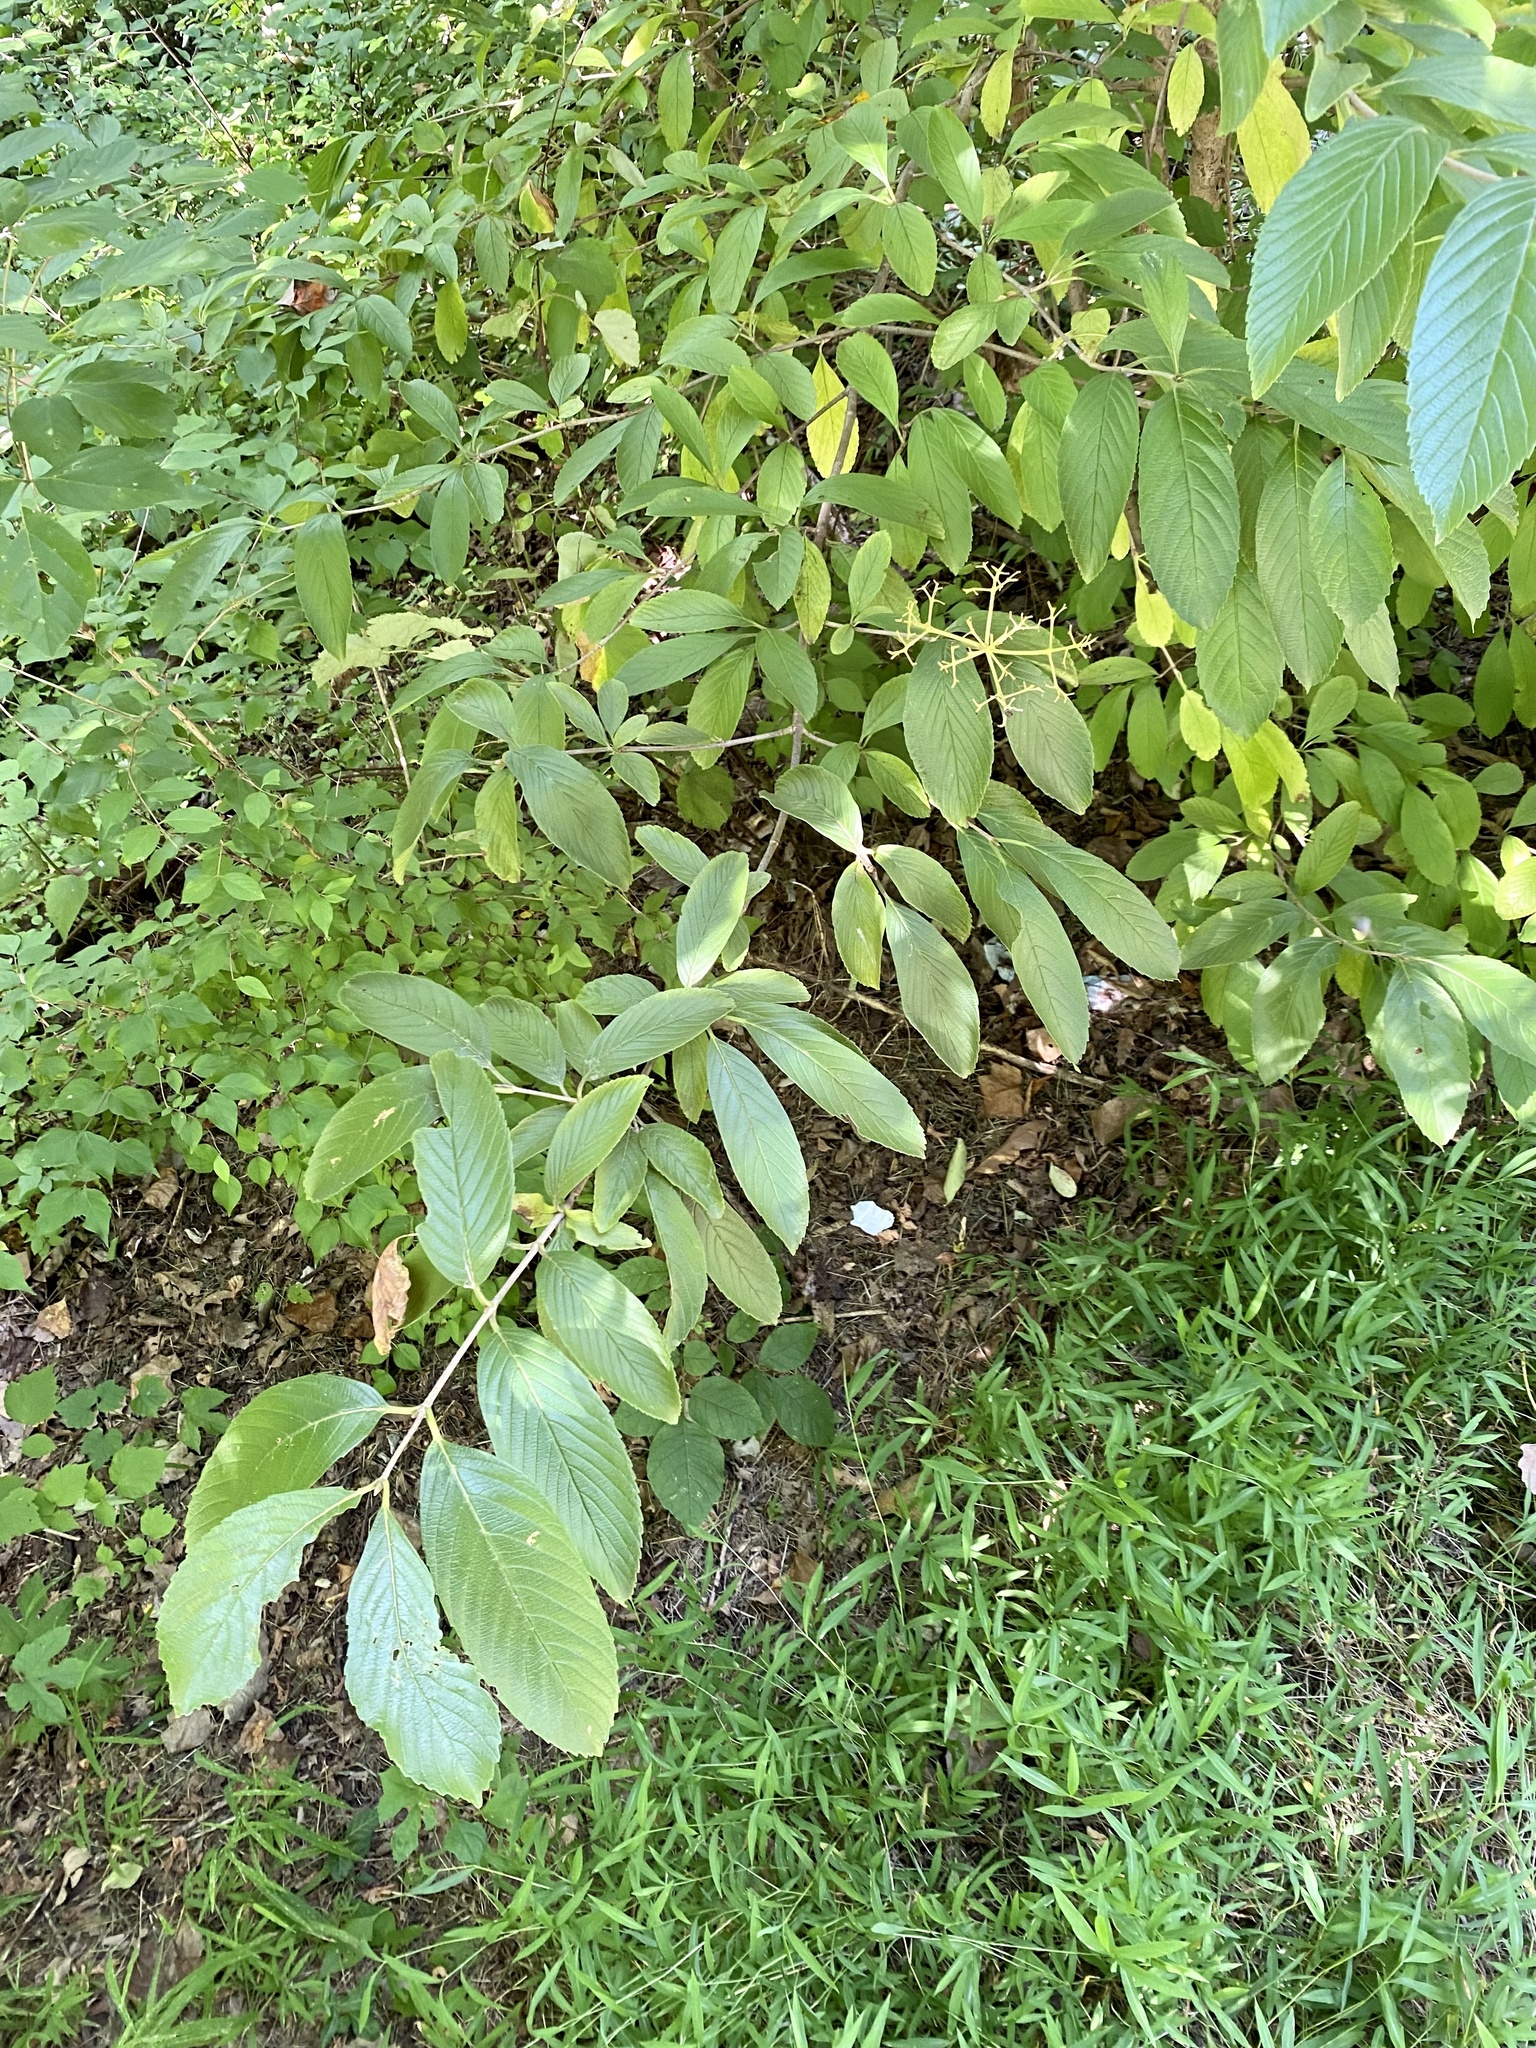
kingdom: Plantae
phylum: Tracheophyta
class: Magnoliopsida
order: Dipsacales
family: Viburnaceae
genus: Viburnum
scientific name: Viburnum sieboldii
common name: Siebold's arrowwood
